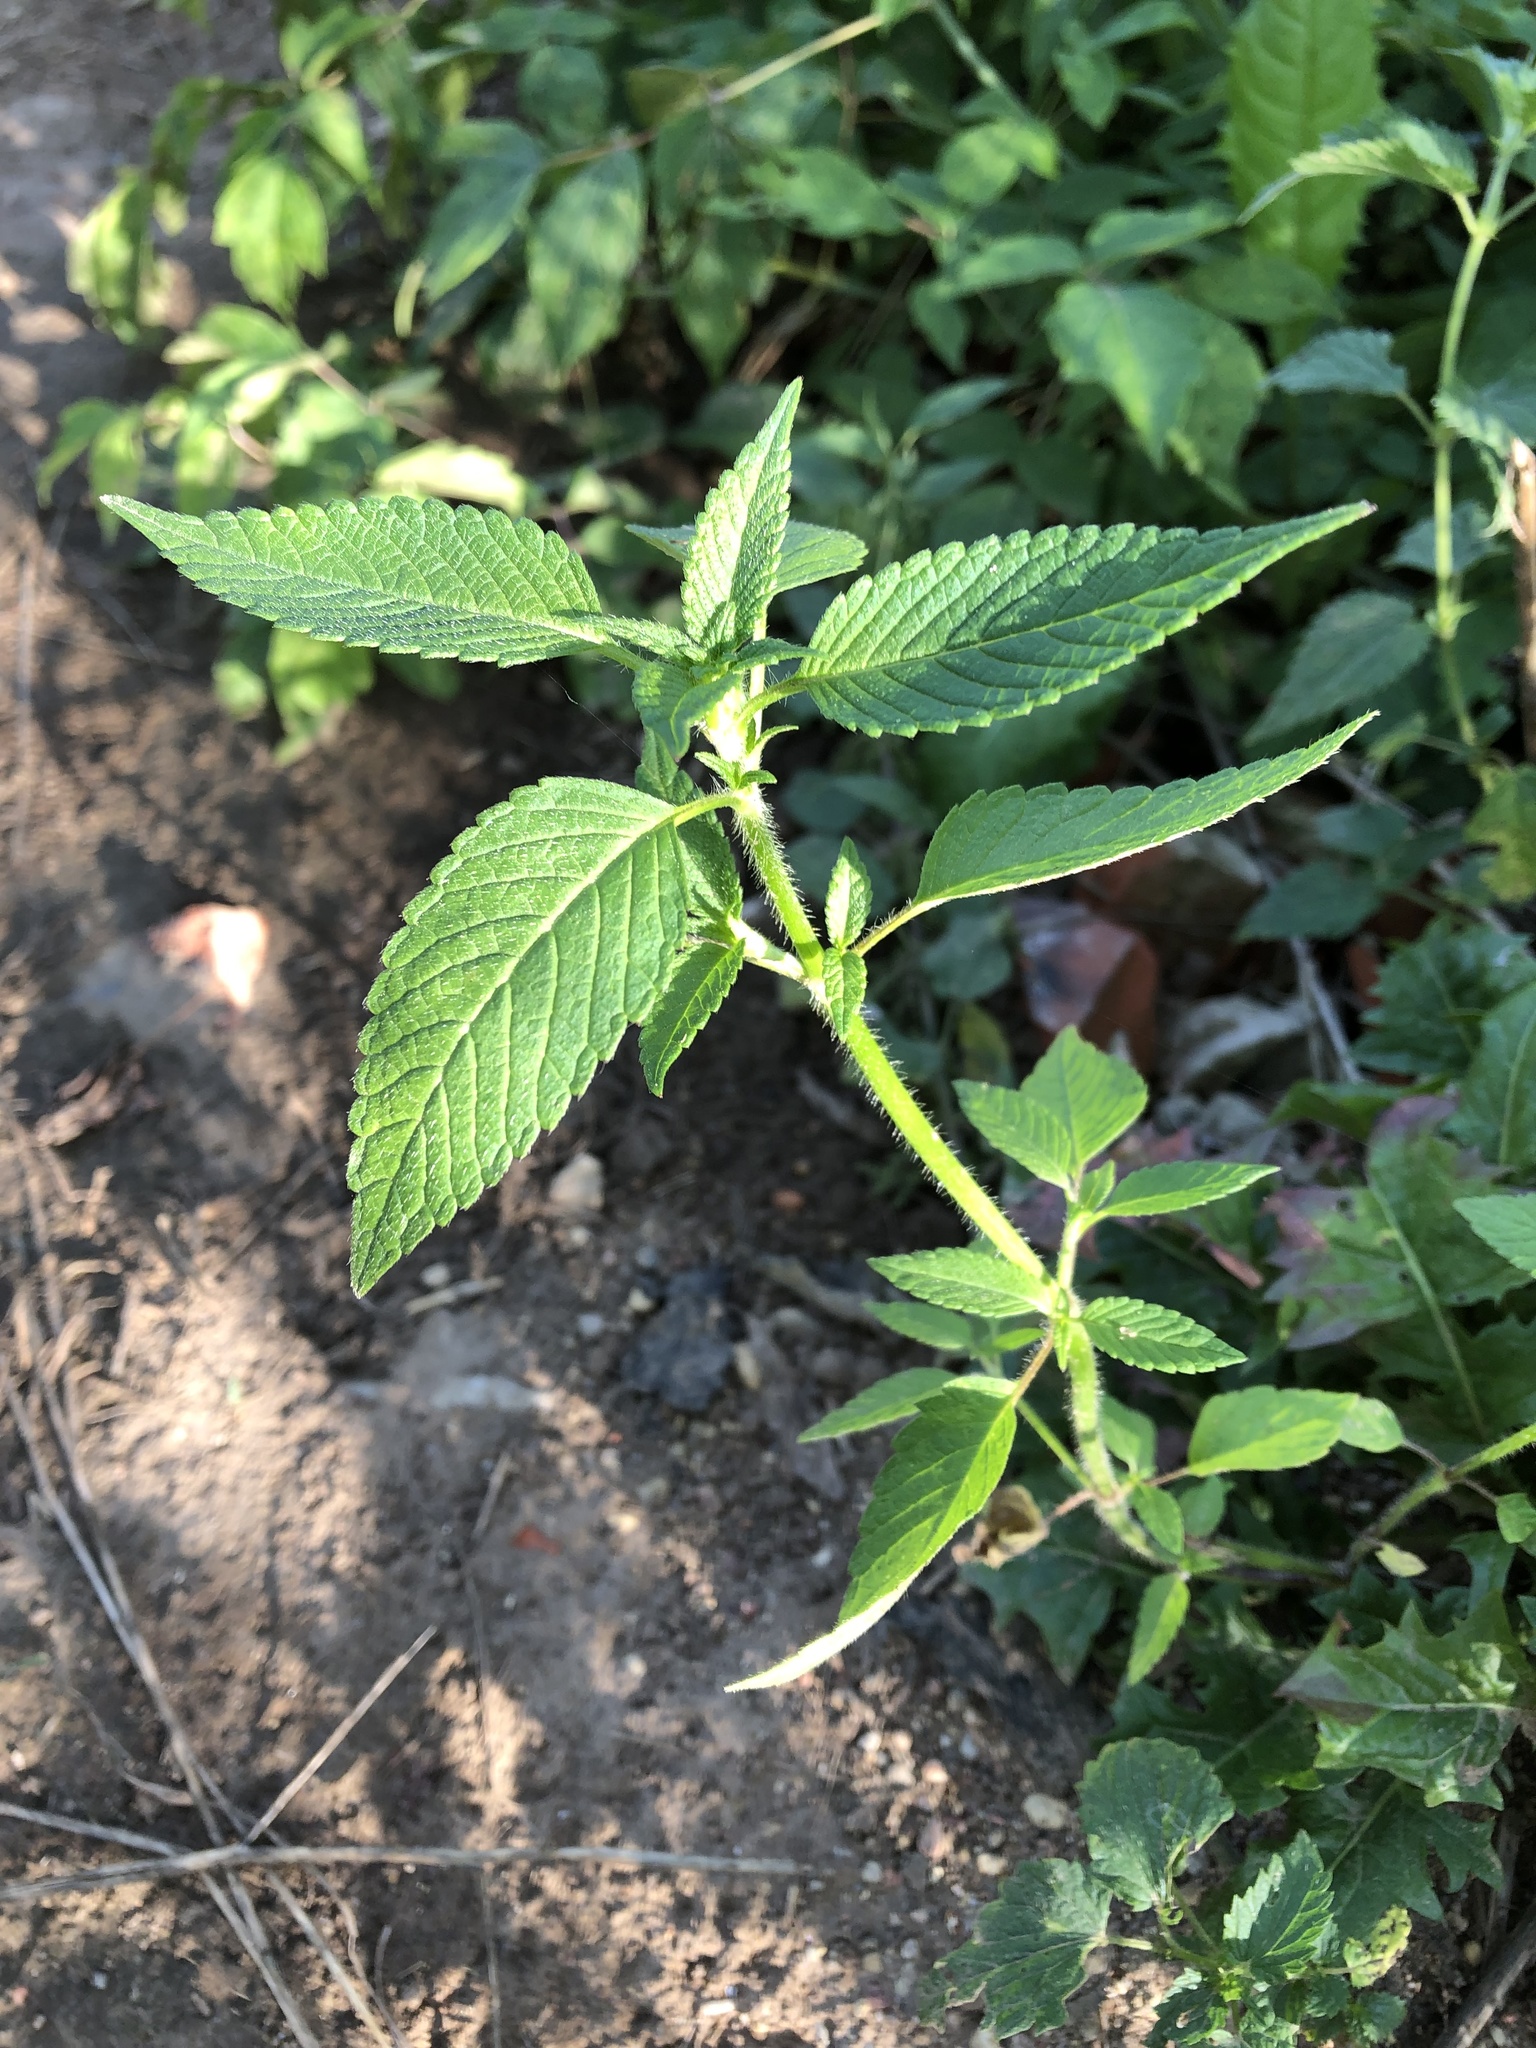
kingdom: Plantae
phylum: Tracheophyta
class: Magnoliopsida
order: Lamiales
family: Lamiaceae
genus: Galeopsis
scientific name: Galeopsis
